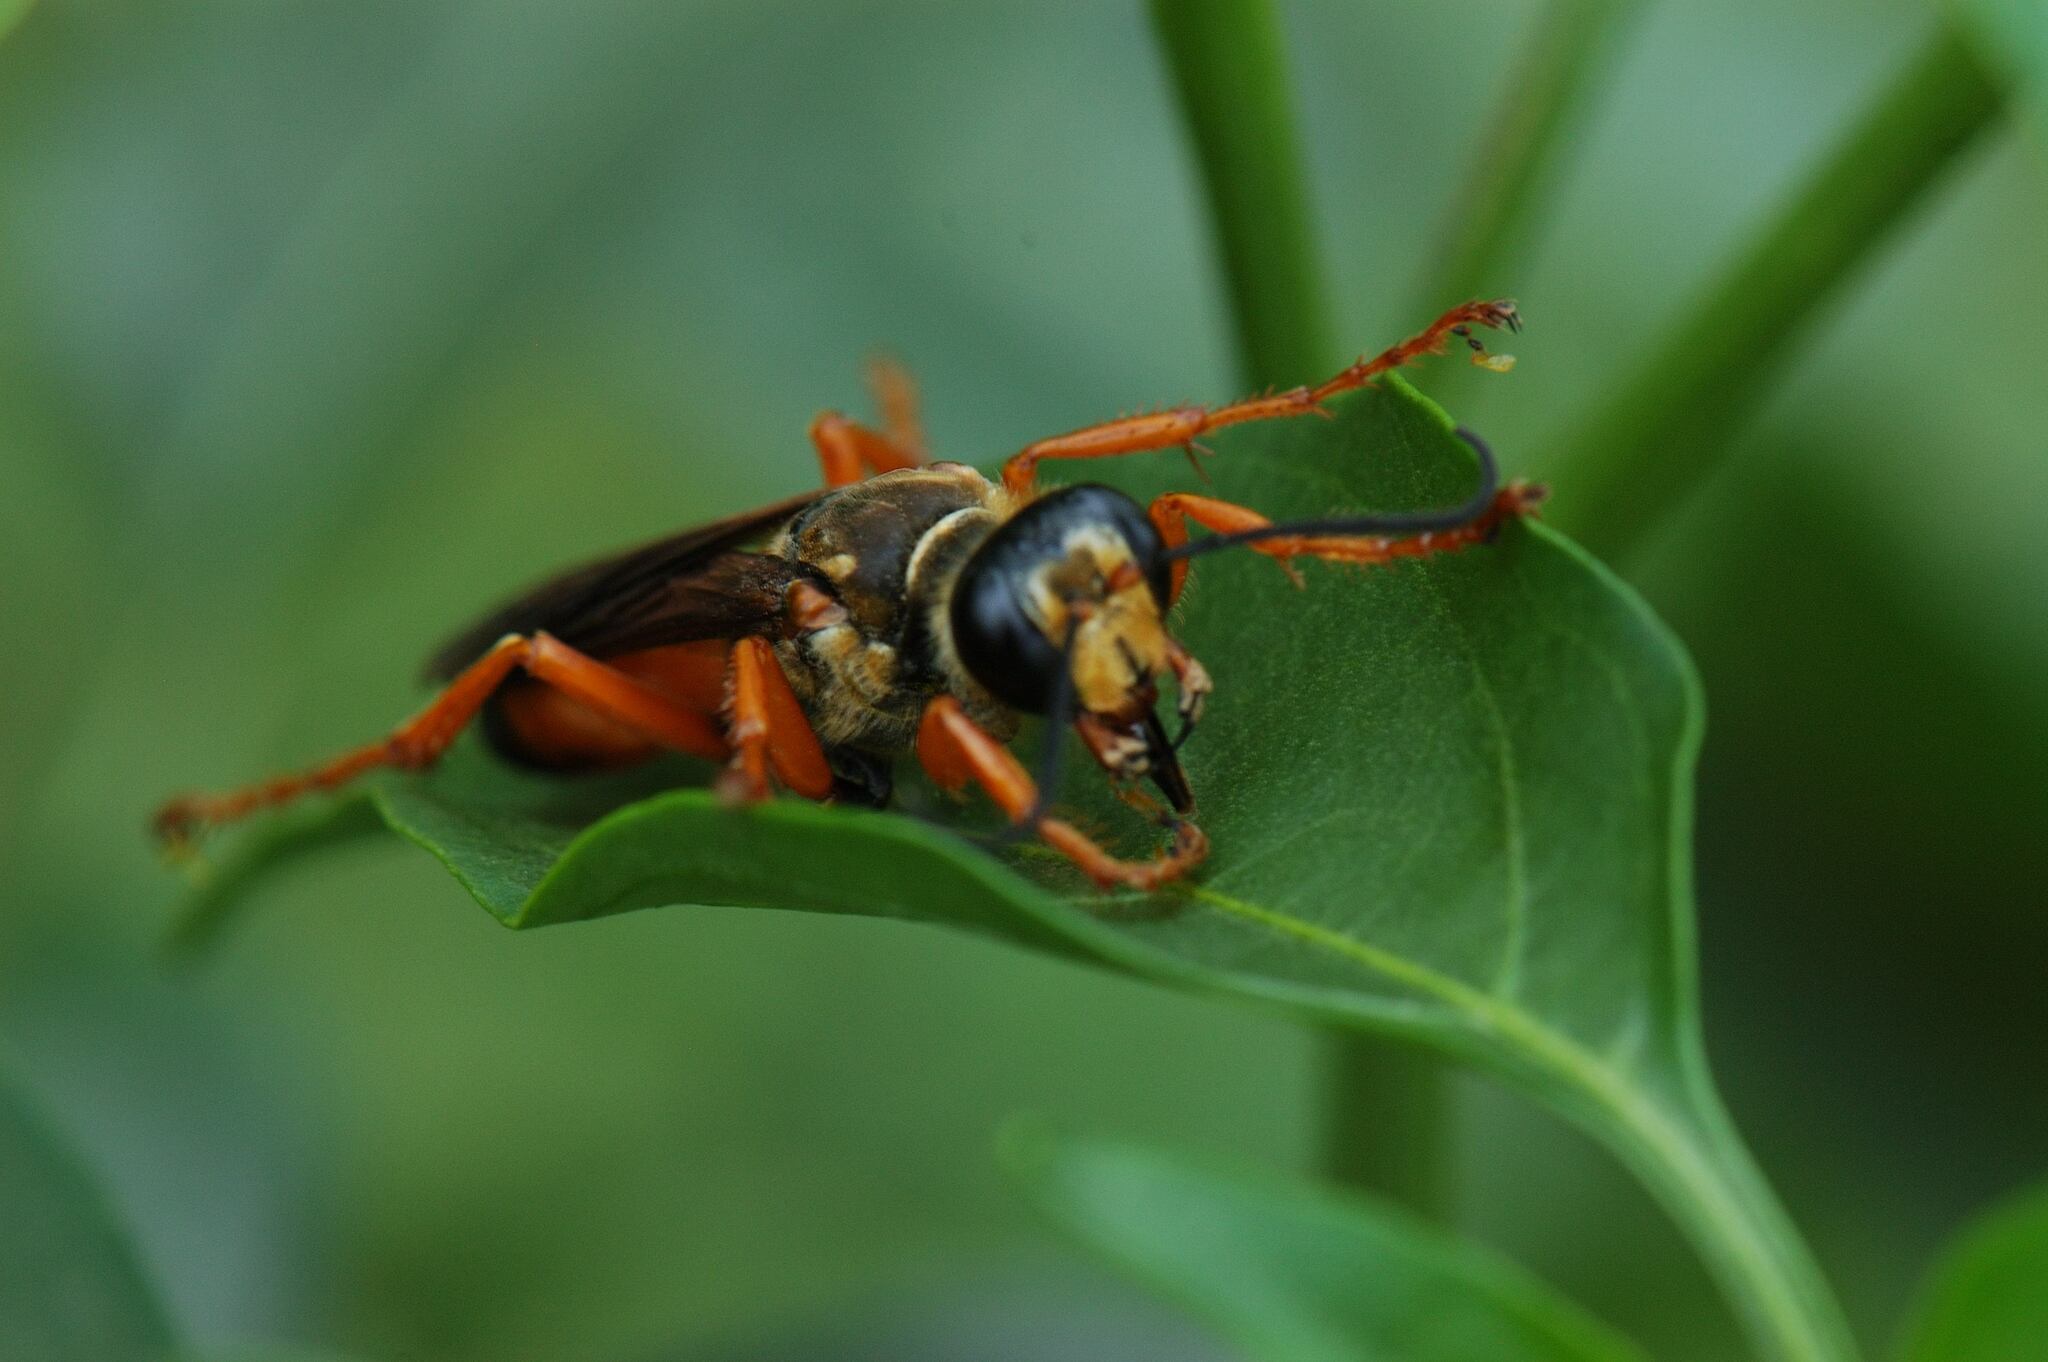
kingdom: Animalia
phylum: Arthropoda
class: Insecta
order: Hymenoptera
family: Sphecidae
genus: Sphex
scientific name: Sphex ichneumoneus
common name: Great golden digger wasp
